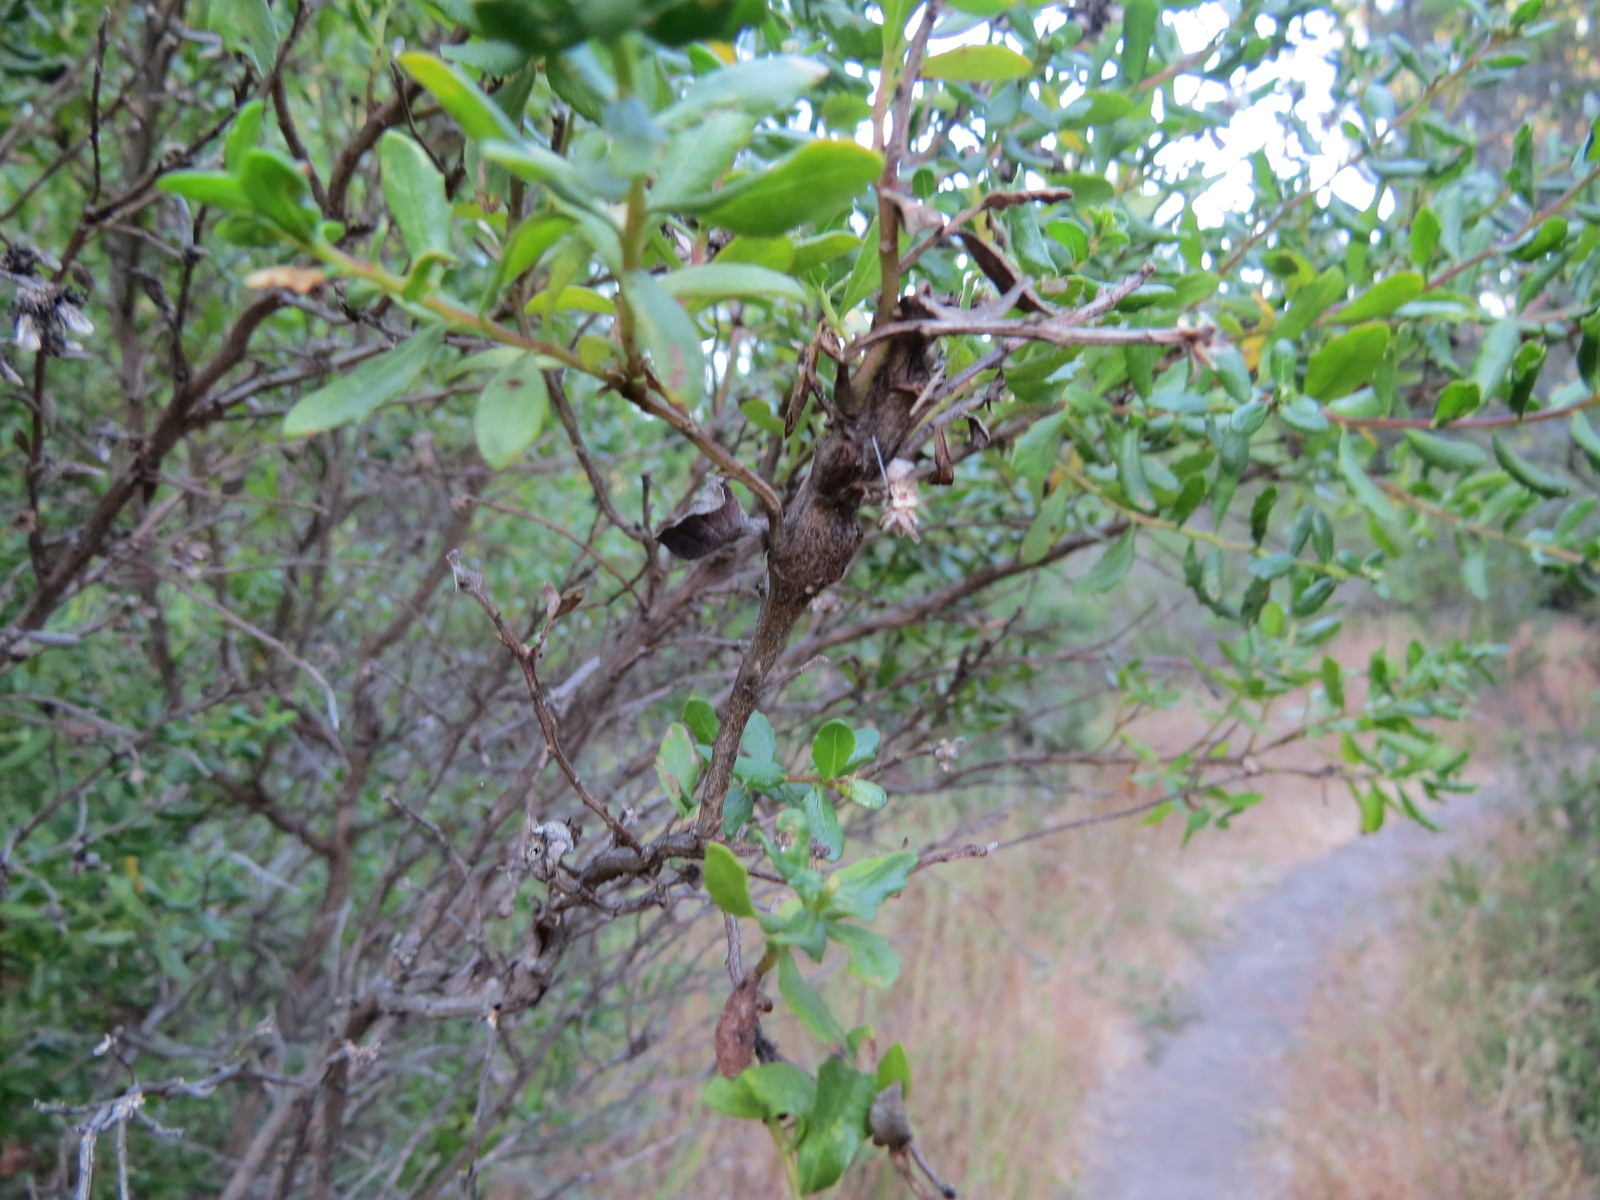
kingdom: Animalia
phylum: Arthropoda
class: Insecta
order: Lepidoptera
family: Gelechiidae
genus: Gnorimoschema
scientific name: Gnorimoschema baccharisella
